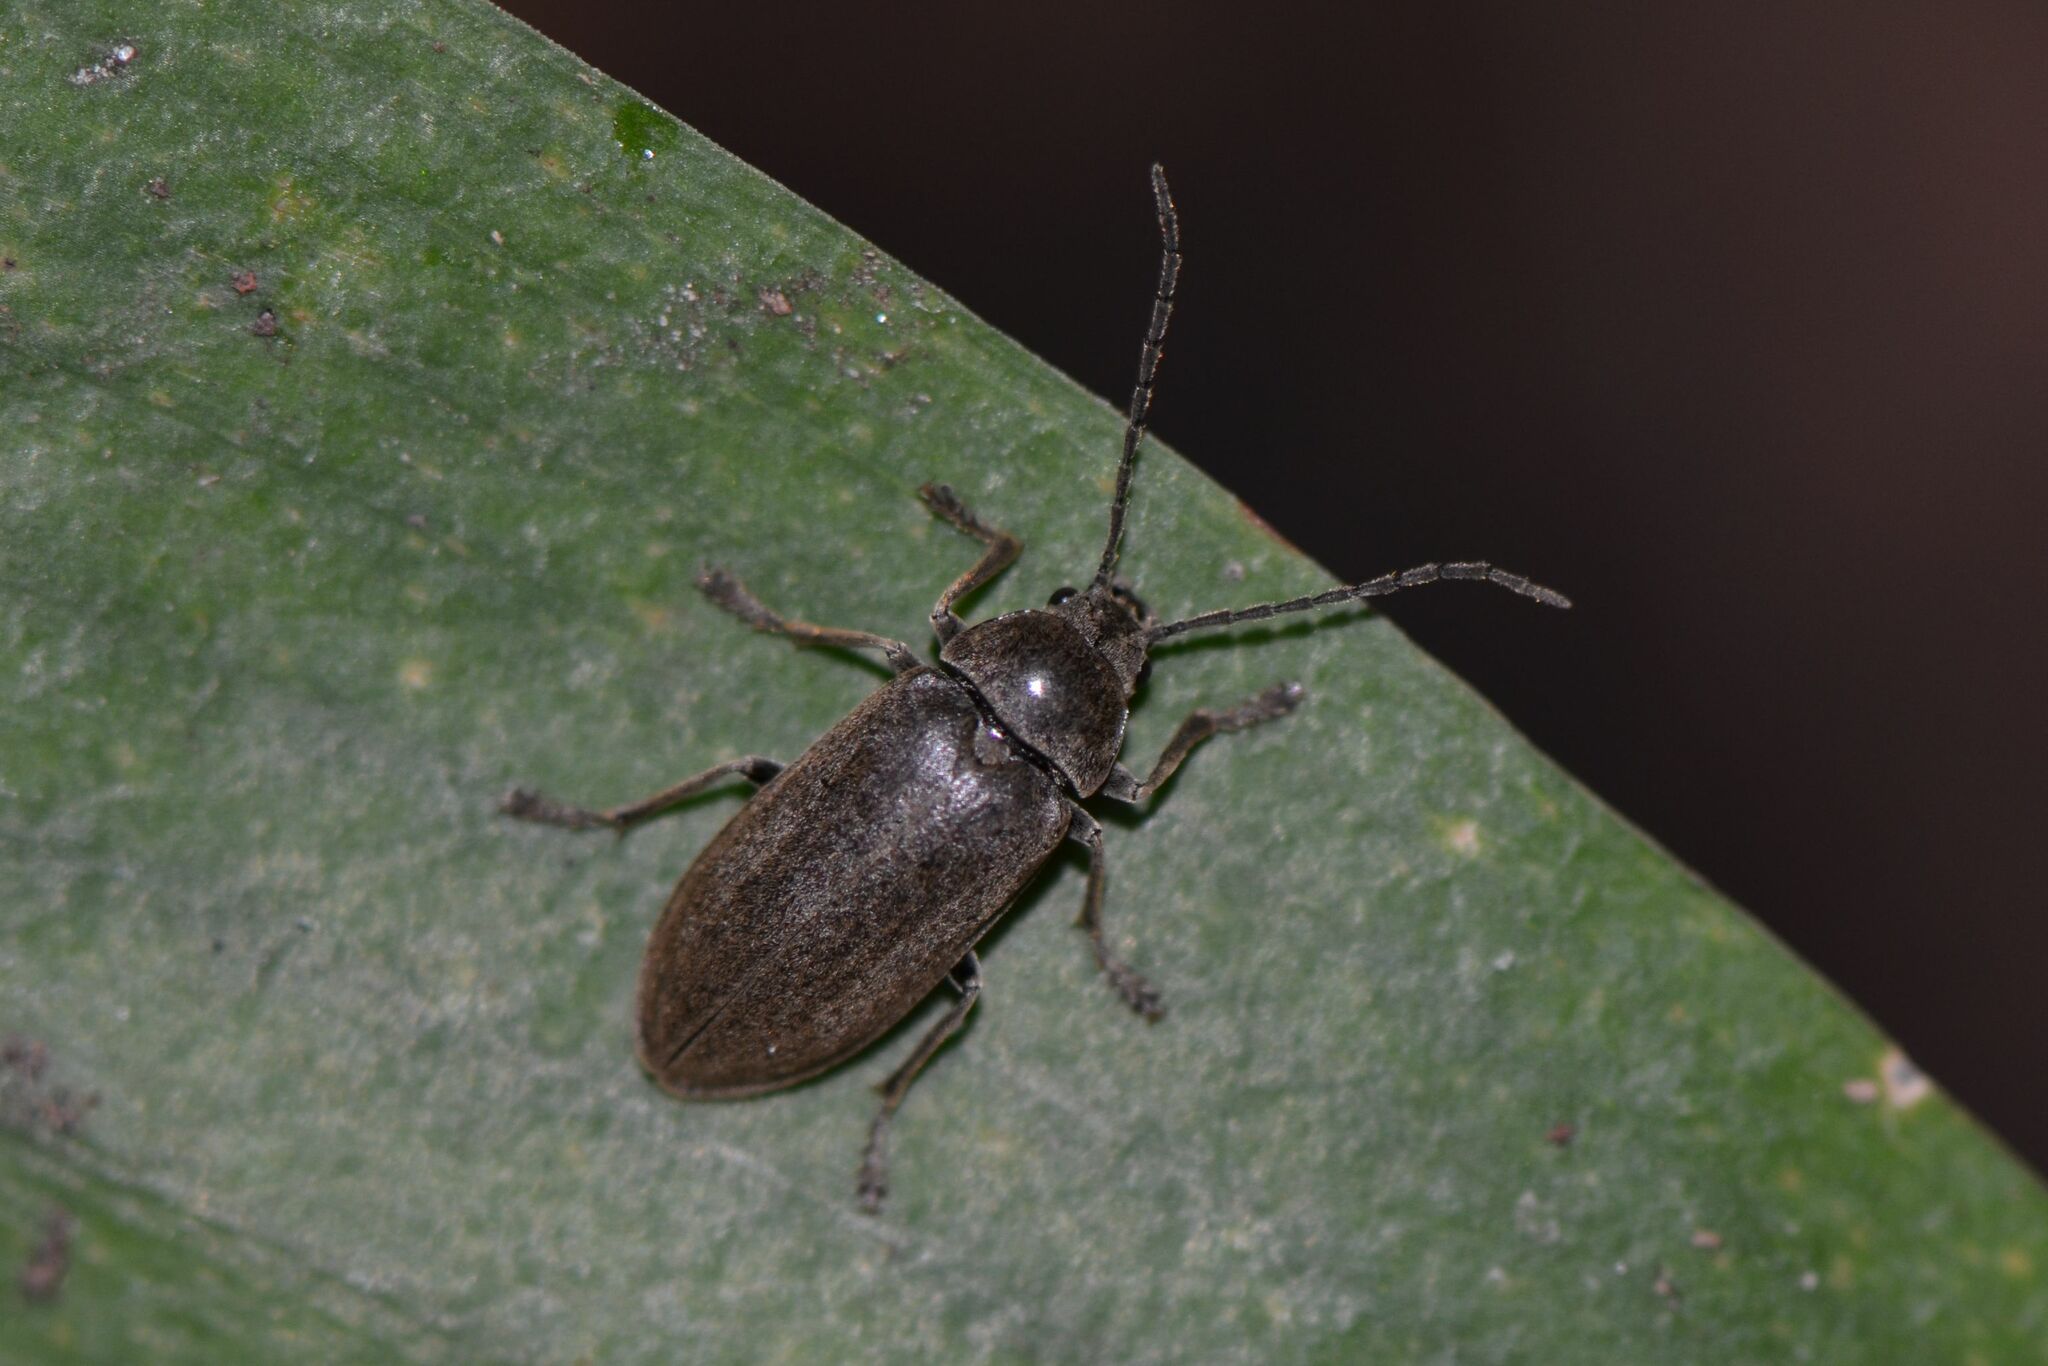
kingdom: Animalia
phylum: Arthropoda
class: Insecta
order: Coleoptera
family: Dascillidae
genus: Dascillus
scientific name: Dascillus cervinus
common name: Orchid beetle
